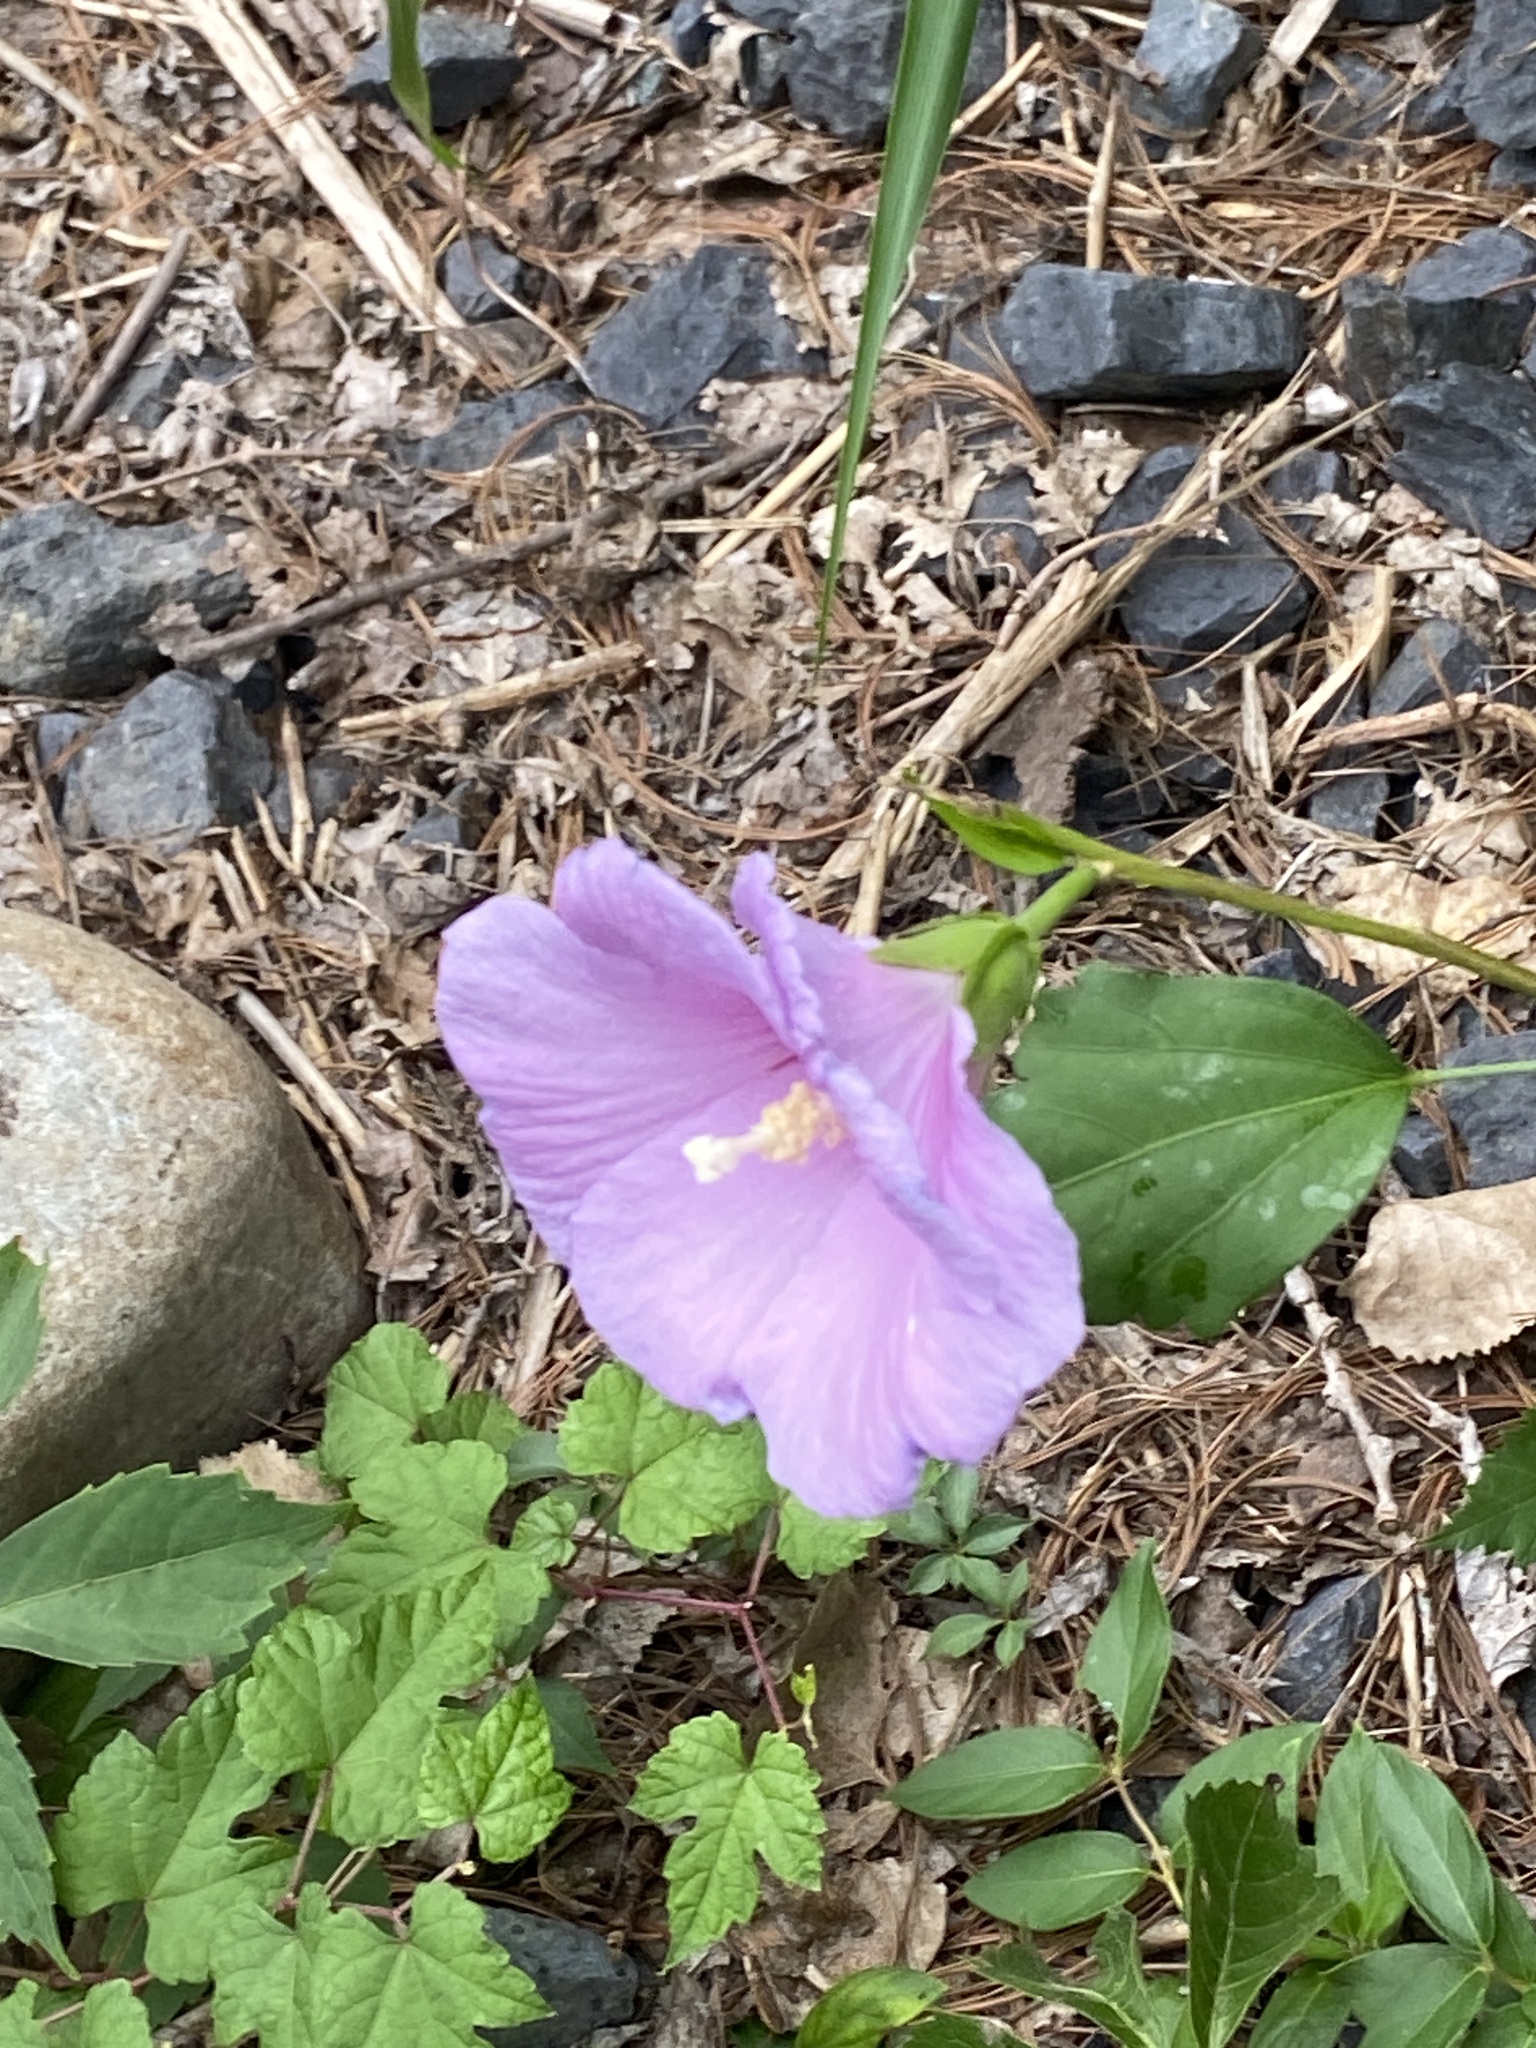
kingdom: Plantae
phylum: Tracheophyta
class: Magnoliopsida
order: Malvales
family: Malvaceae
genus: Hibiscus
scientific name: Hibiscus syriacus
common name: Syrian ketmia
